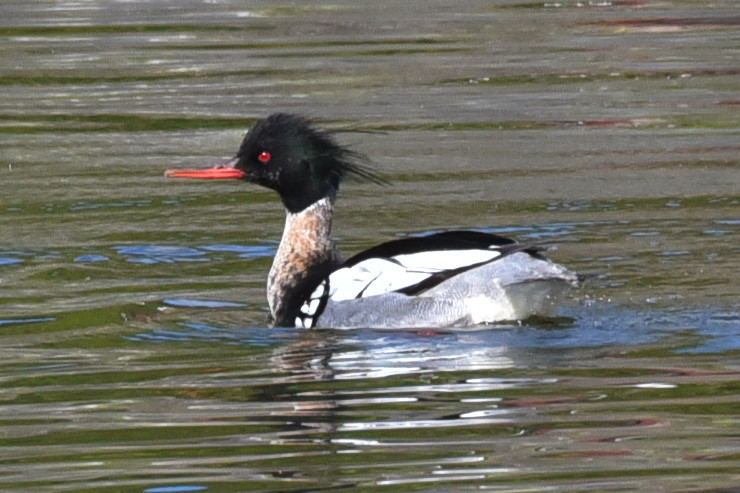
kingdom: Animalia
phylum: Chordata
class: Aves
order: Anseriformes
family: Anatidae
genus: Mergus
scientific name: Mergus serrator
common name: Red-breasted merganser
